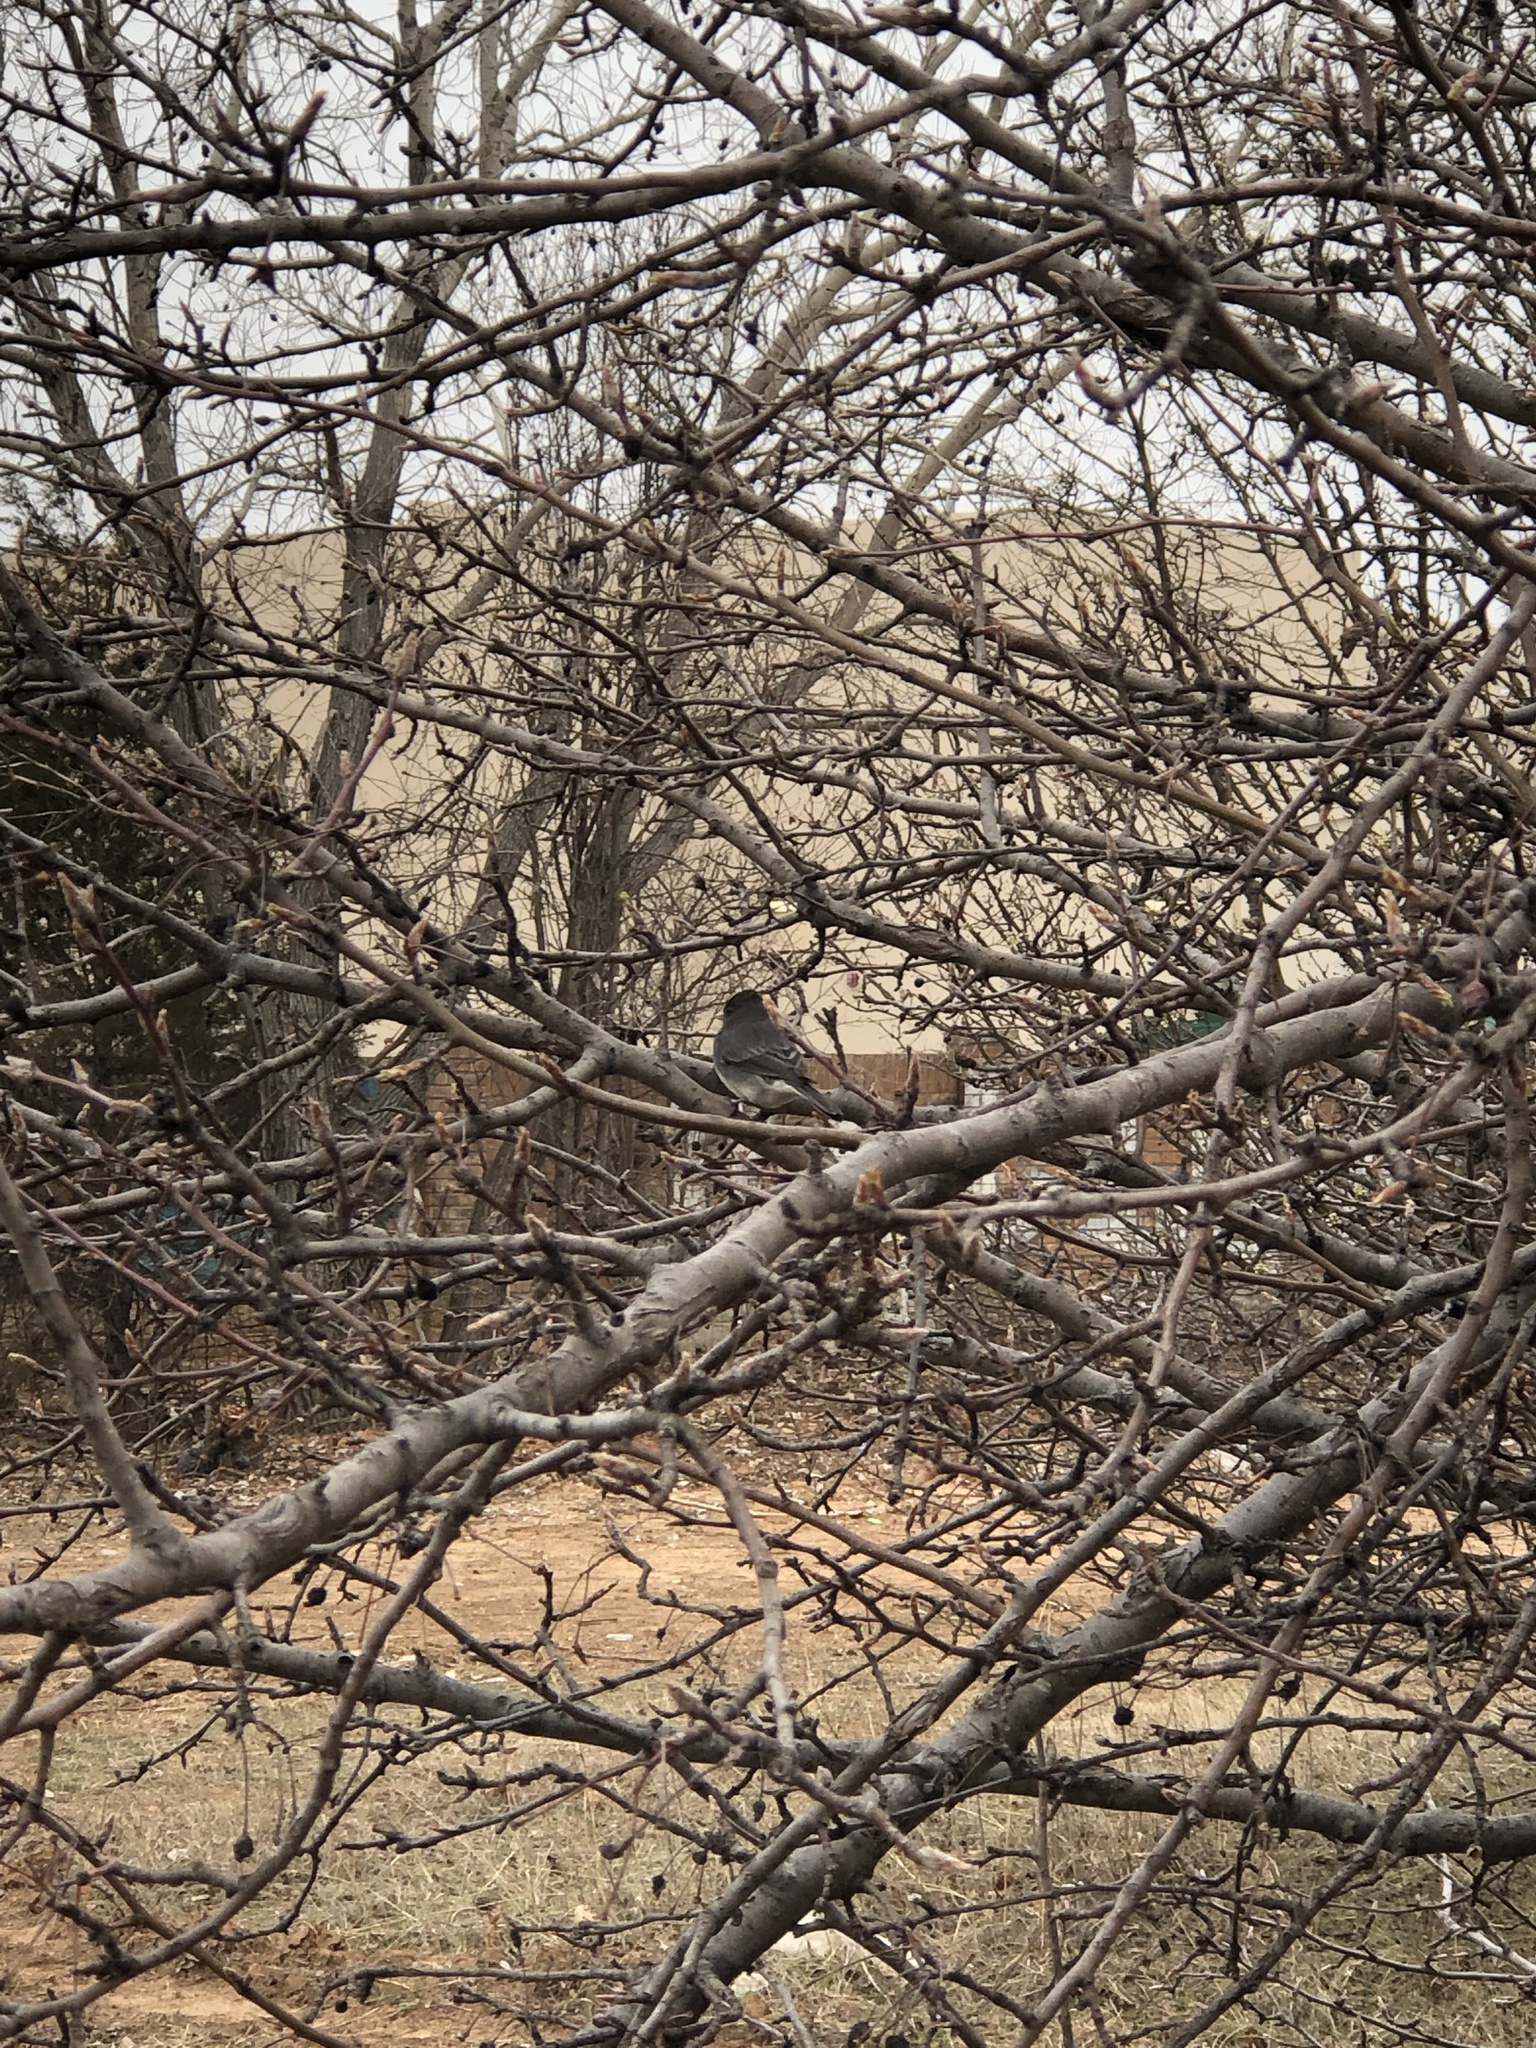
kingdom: Animalia
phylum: Chordata
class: Aves
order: Passeriformes
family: Passerellidae
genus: Junco
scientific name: Junco hyemalis
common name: Dark-eyed junco
